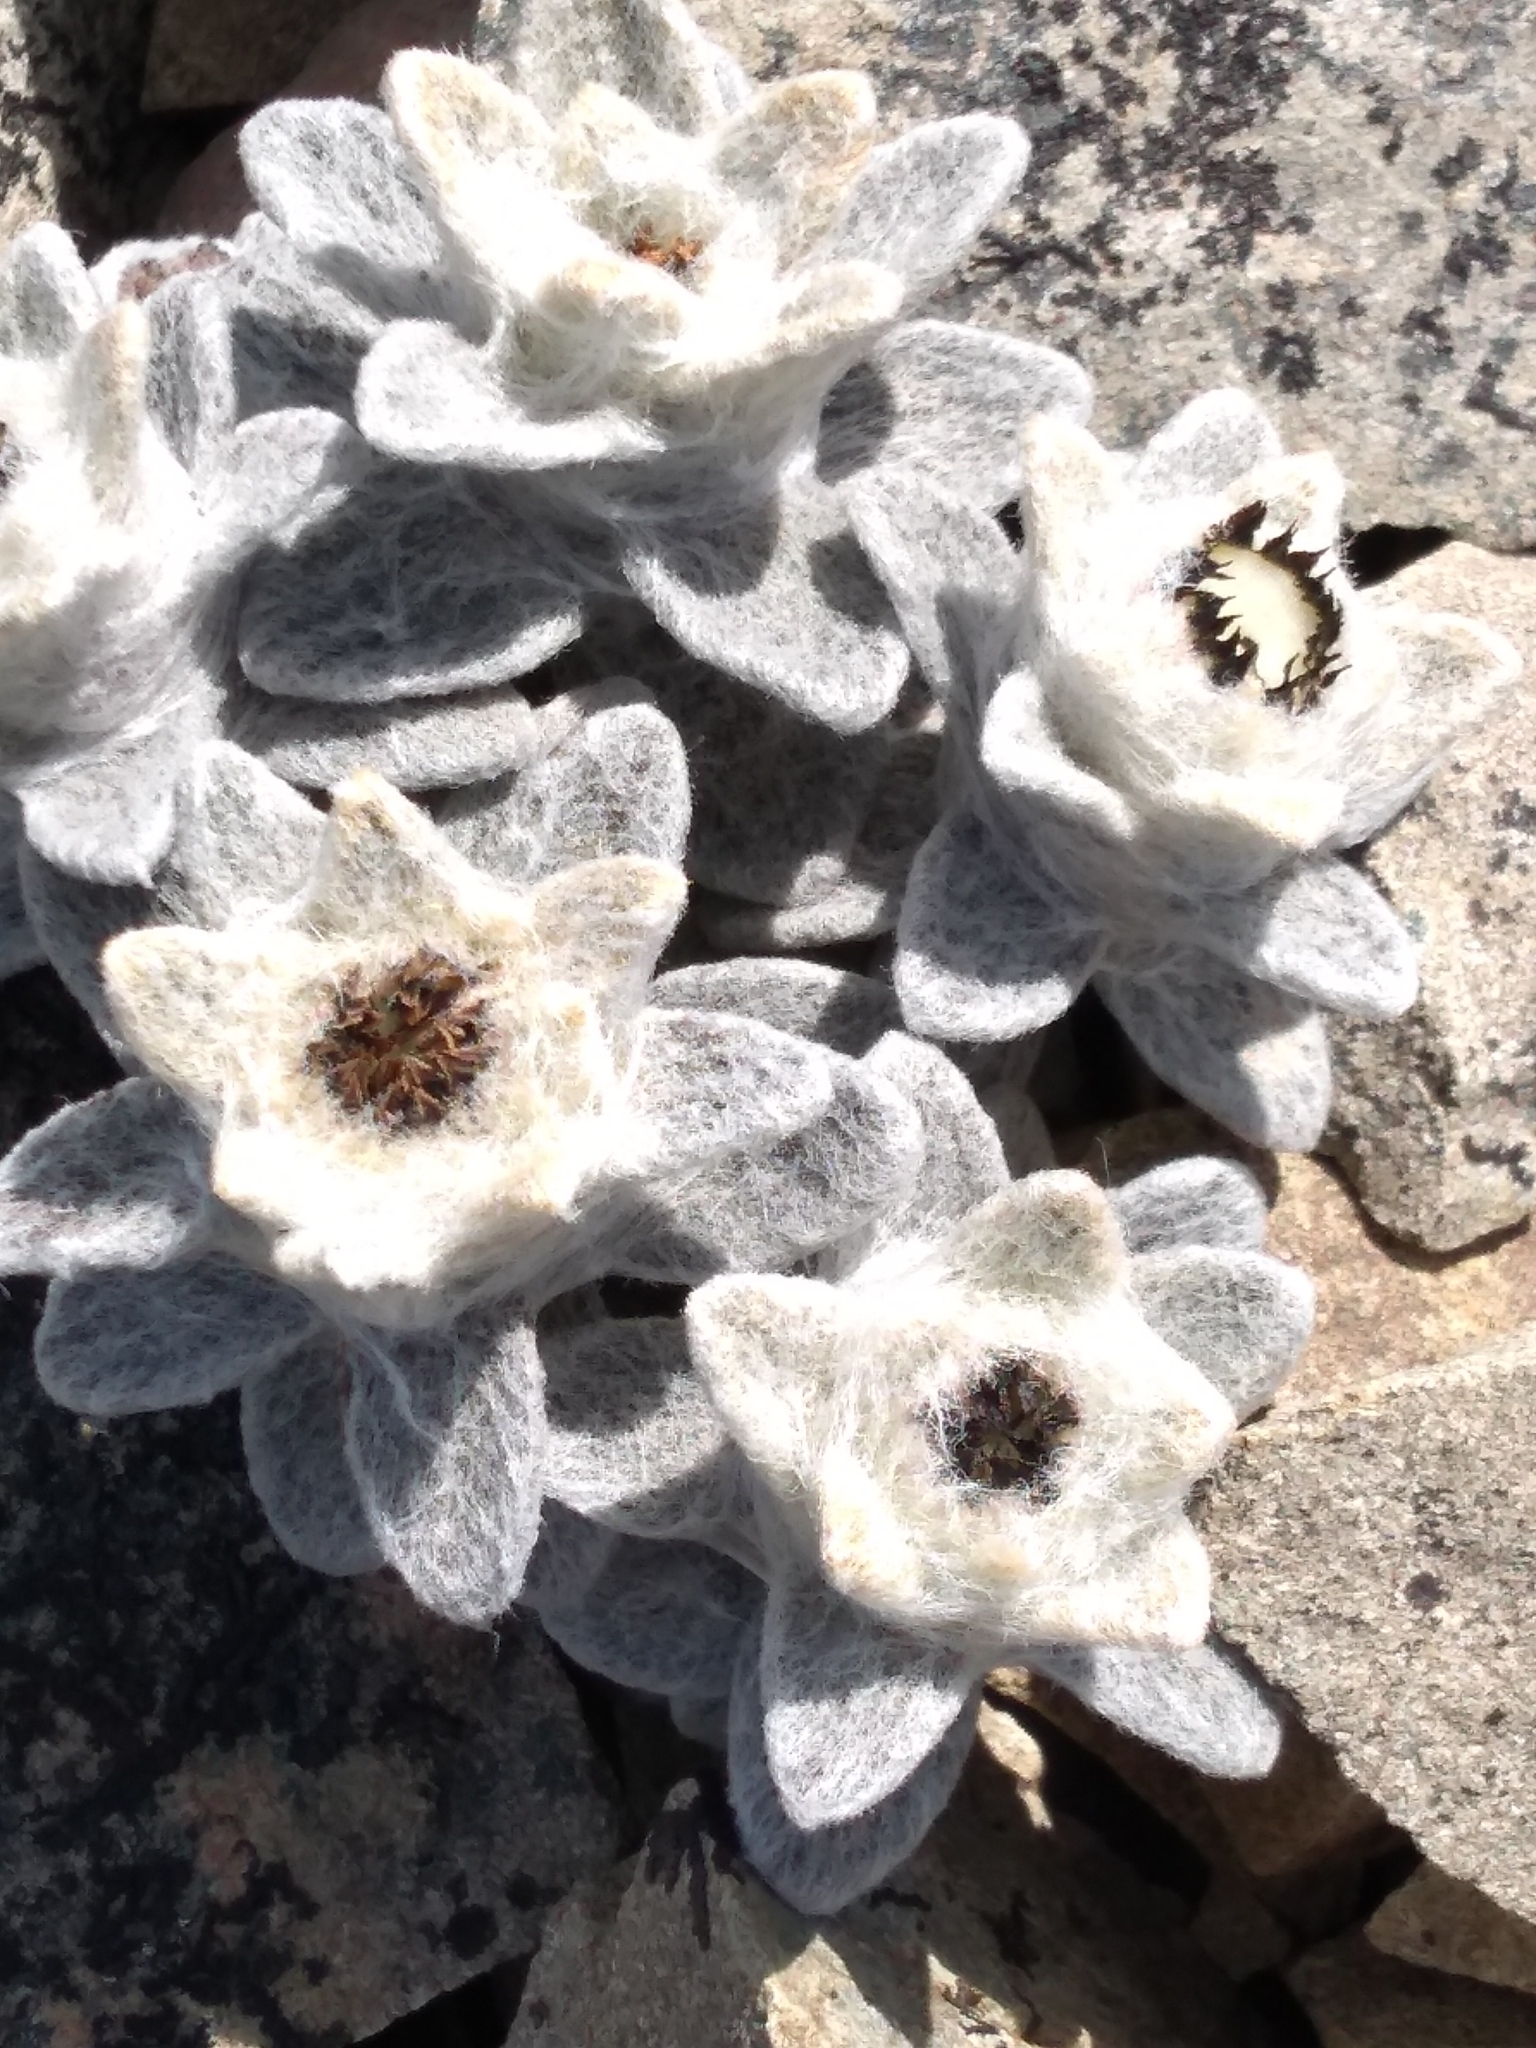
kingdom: Plantae
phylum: Tracheophyta
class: Magnoliopsida
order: Asterales
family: Asteraceae
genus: Haastia
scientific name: Haastia sinclairii
